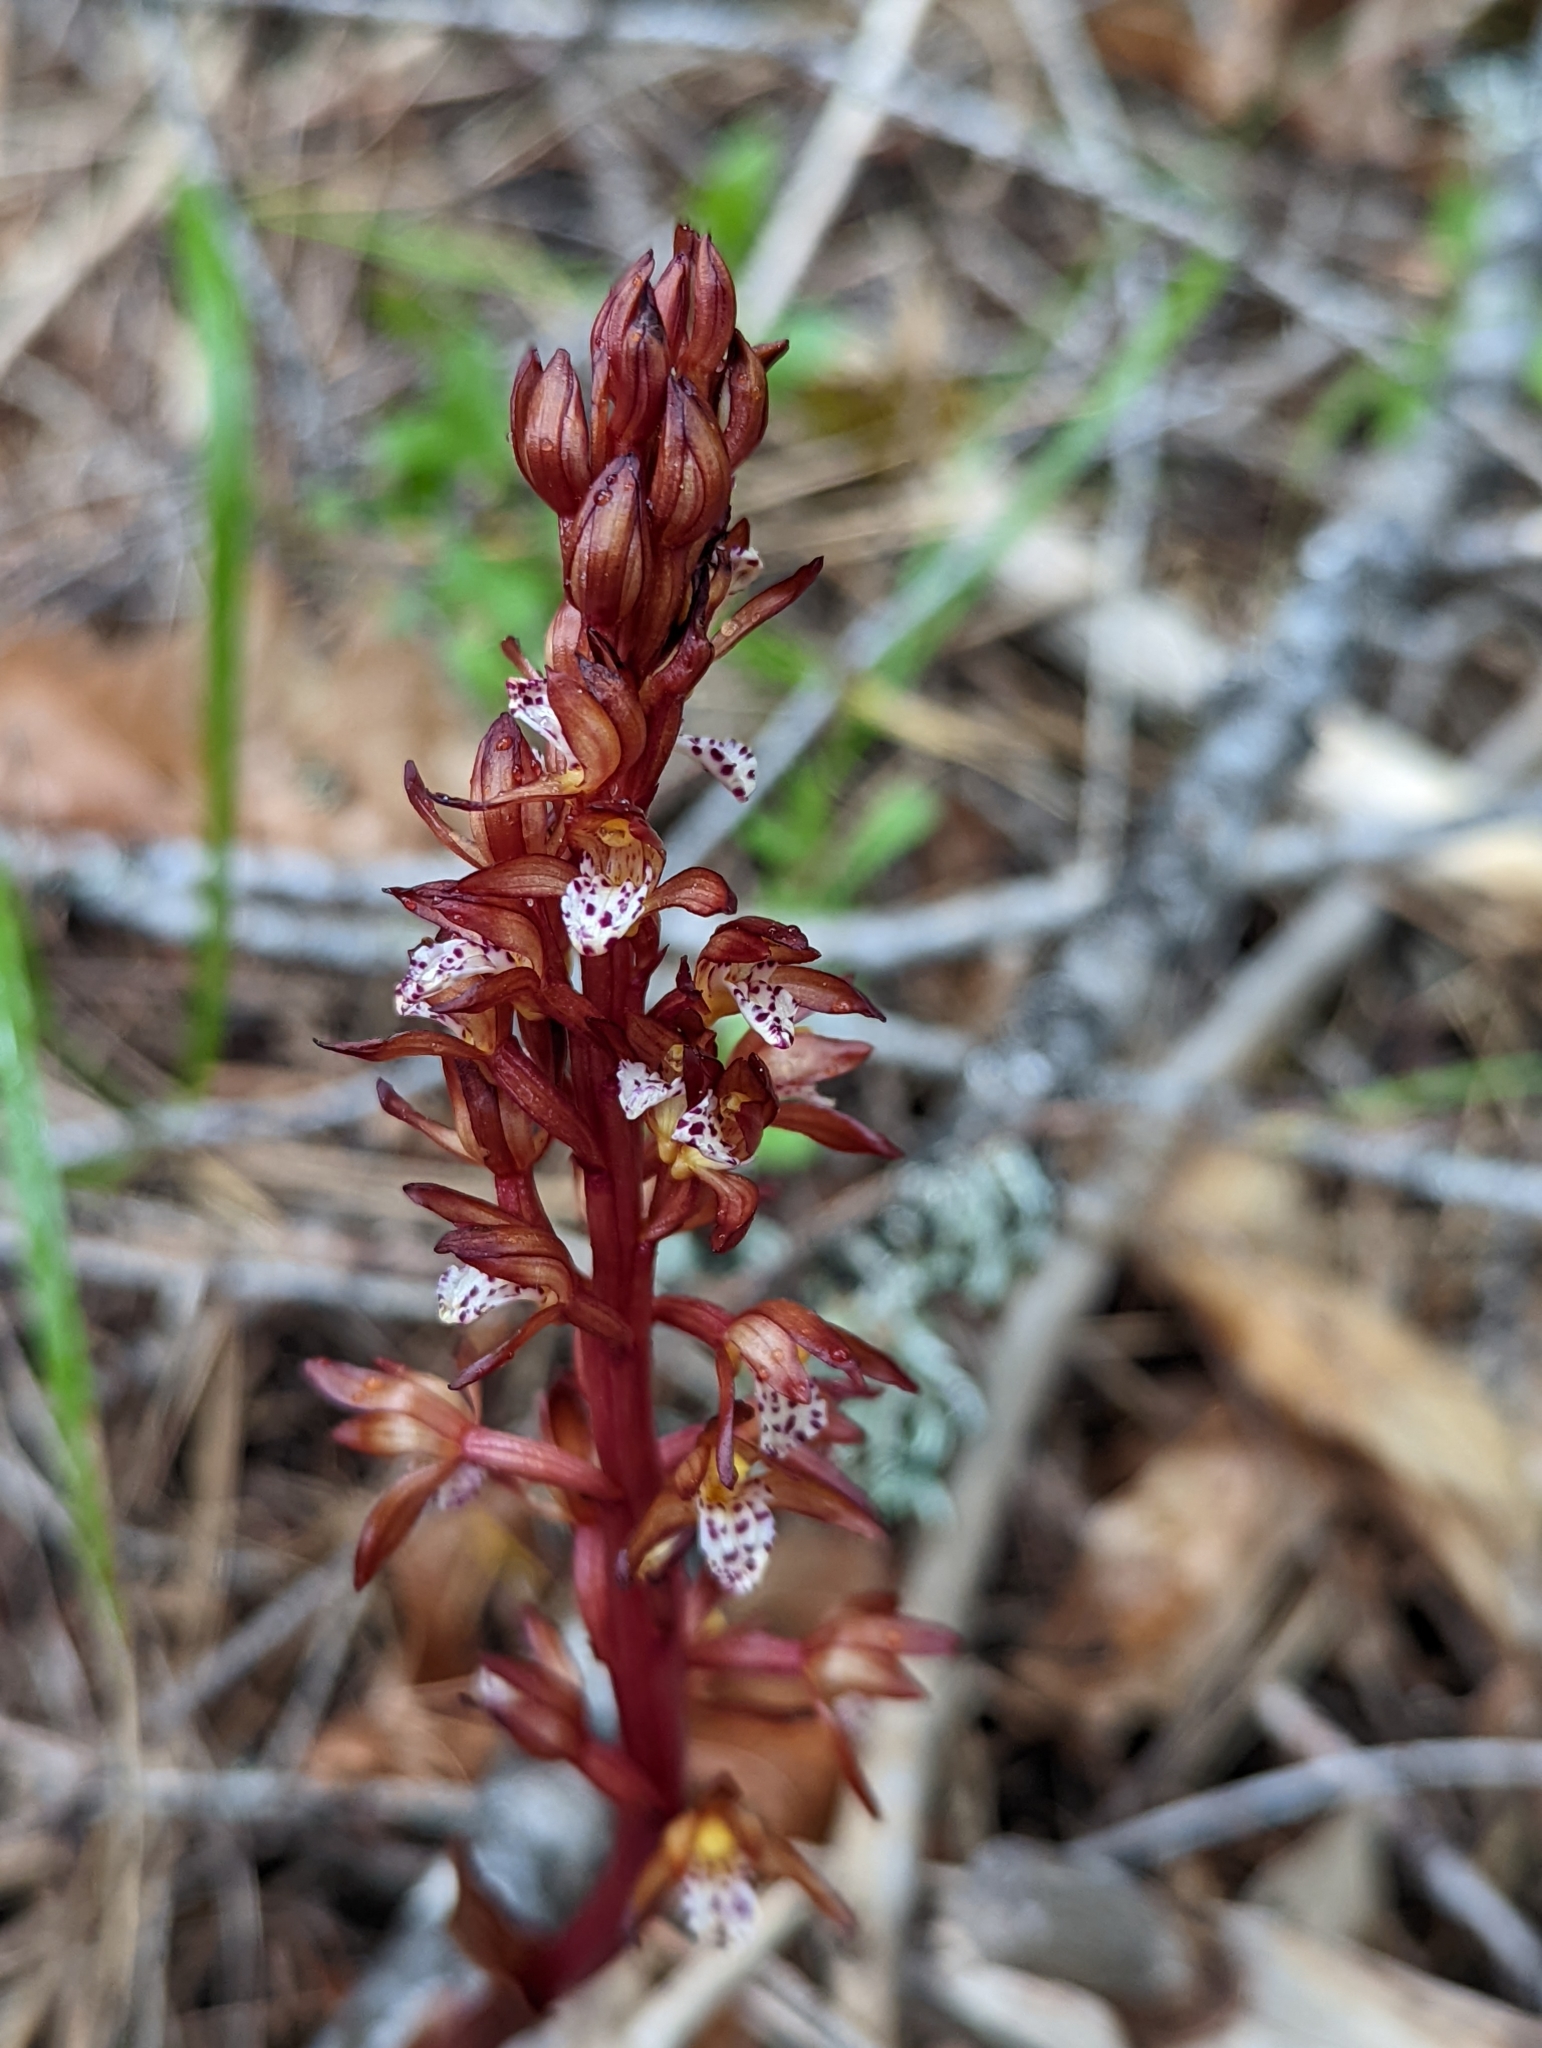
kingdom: Plantae
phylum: Tracheophyta
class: Liliopsida
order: Asparagales
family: Orchidaceae
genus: Corallorhiza
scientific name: Corallorhiza maculata
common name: Spotted coralroot
